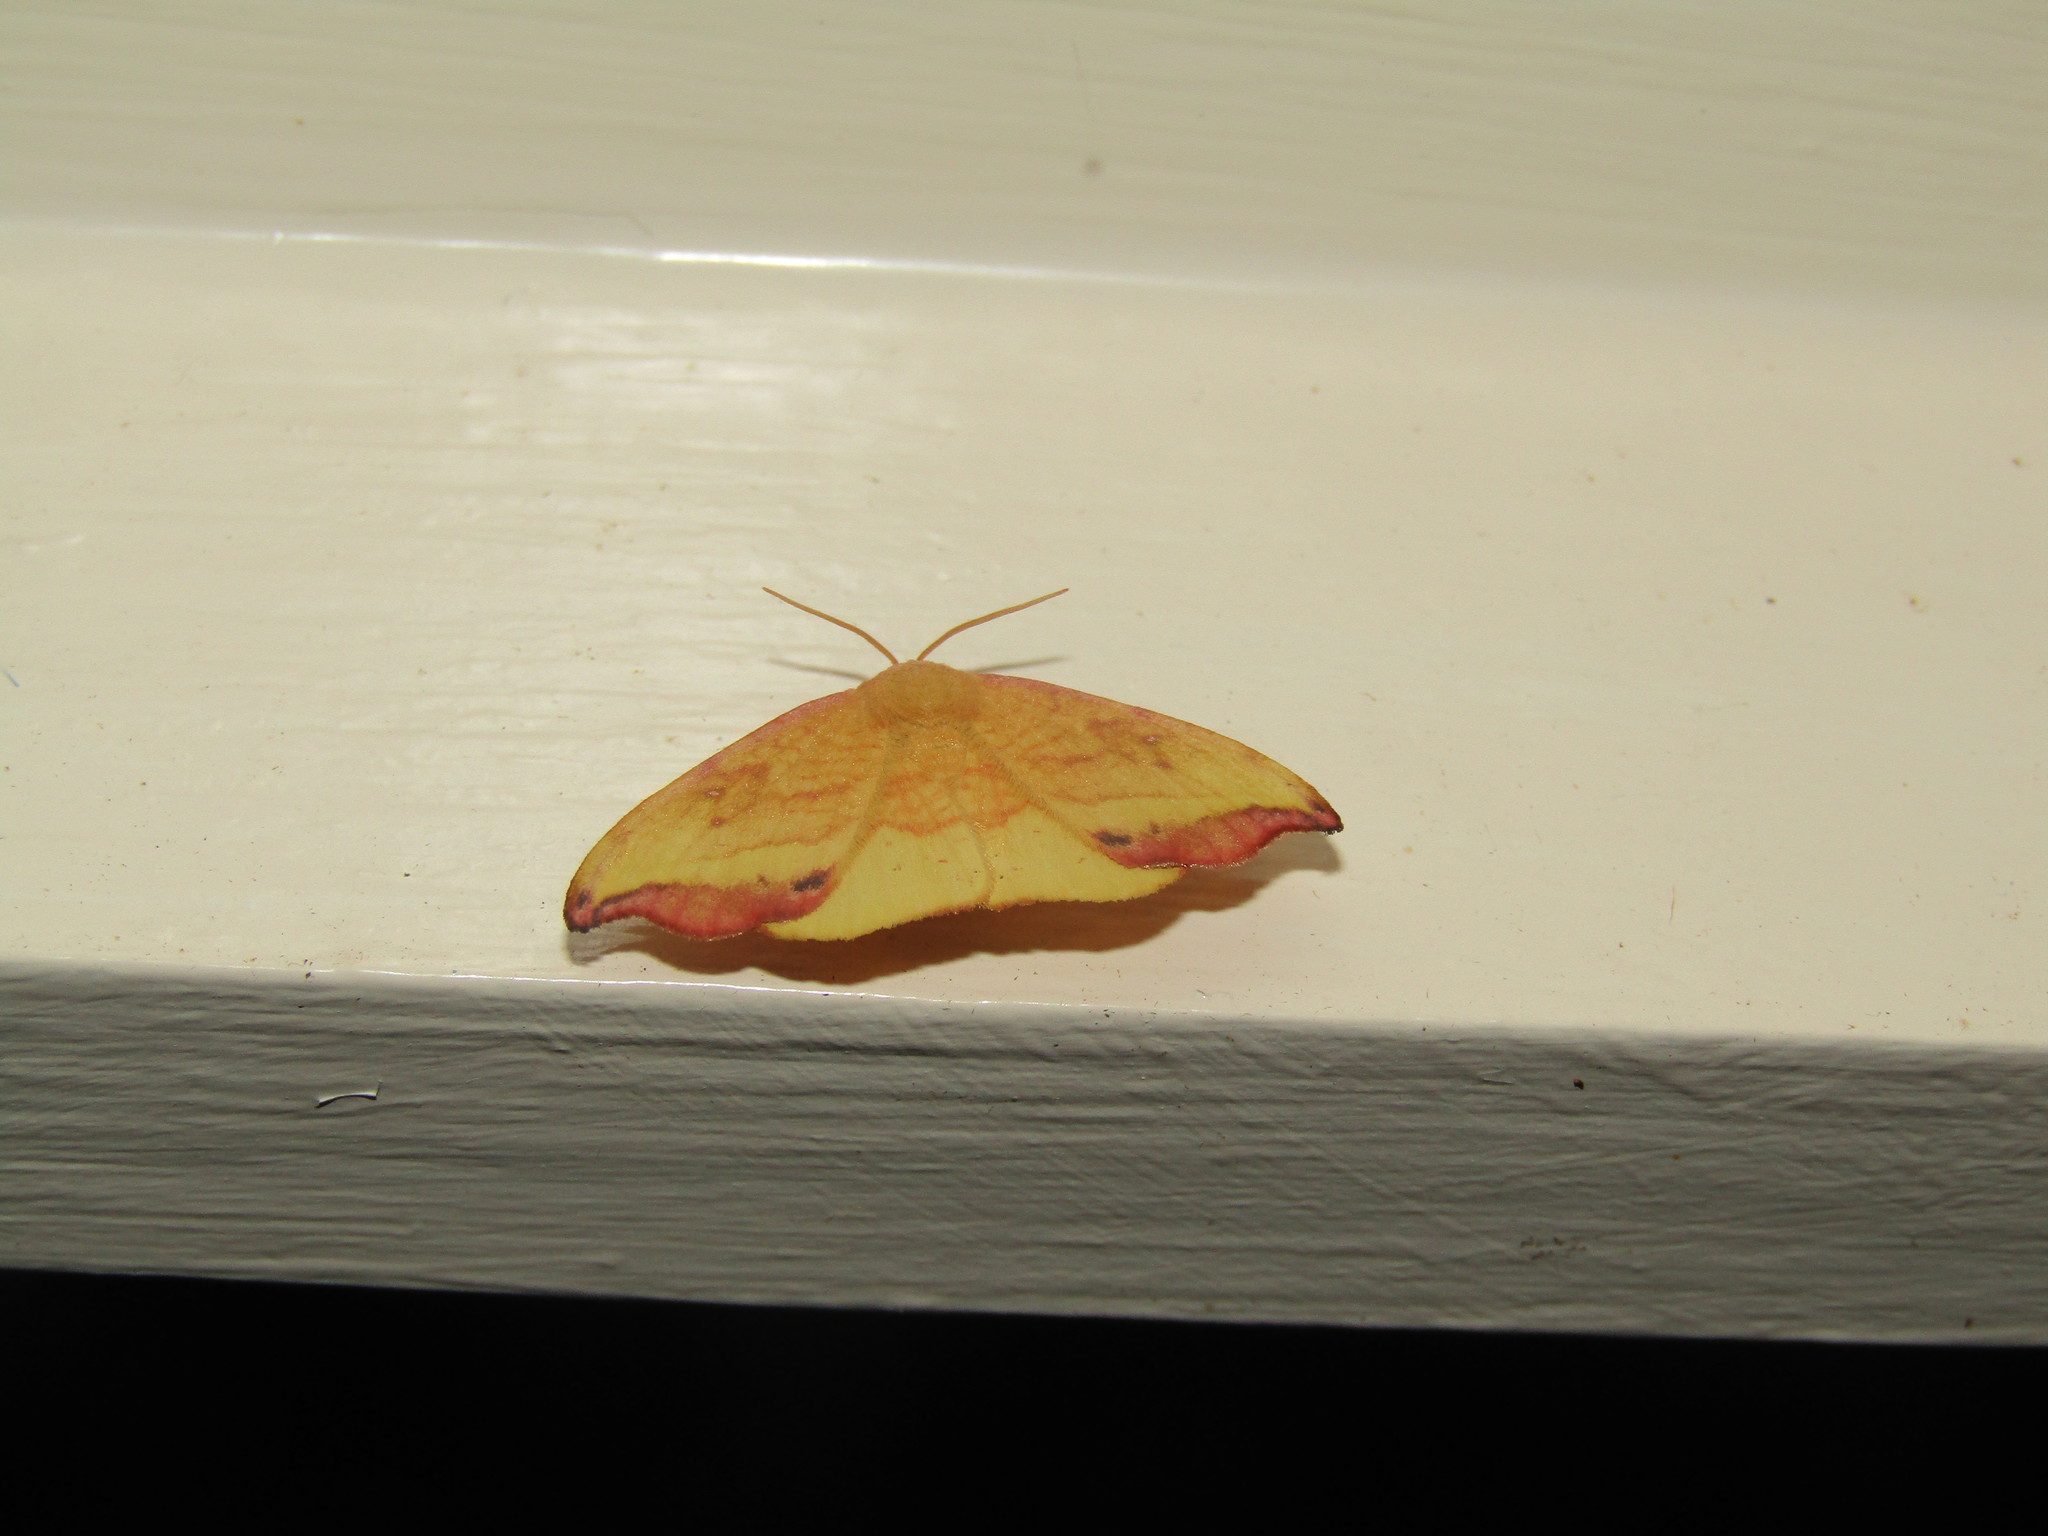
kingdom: Animalia
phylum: Arthropoda
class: Insecta
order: Lepidoptera
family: Drepanidae
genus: Oreta
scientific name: Oreta rosea
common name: Rose hooktip
